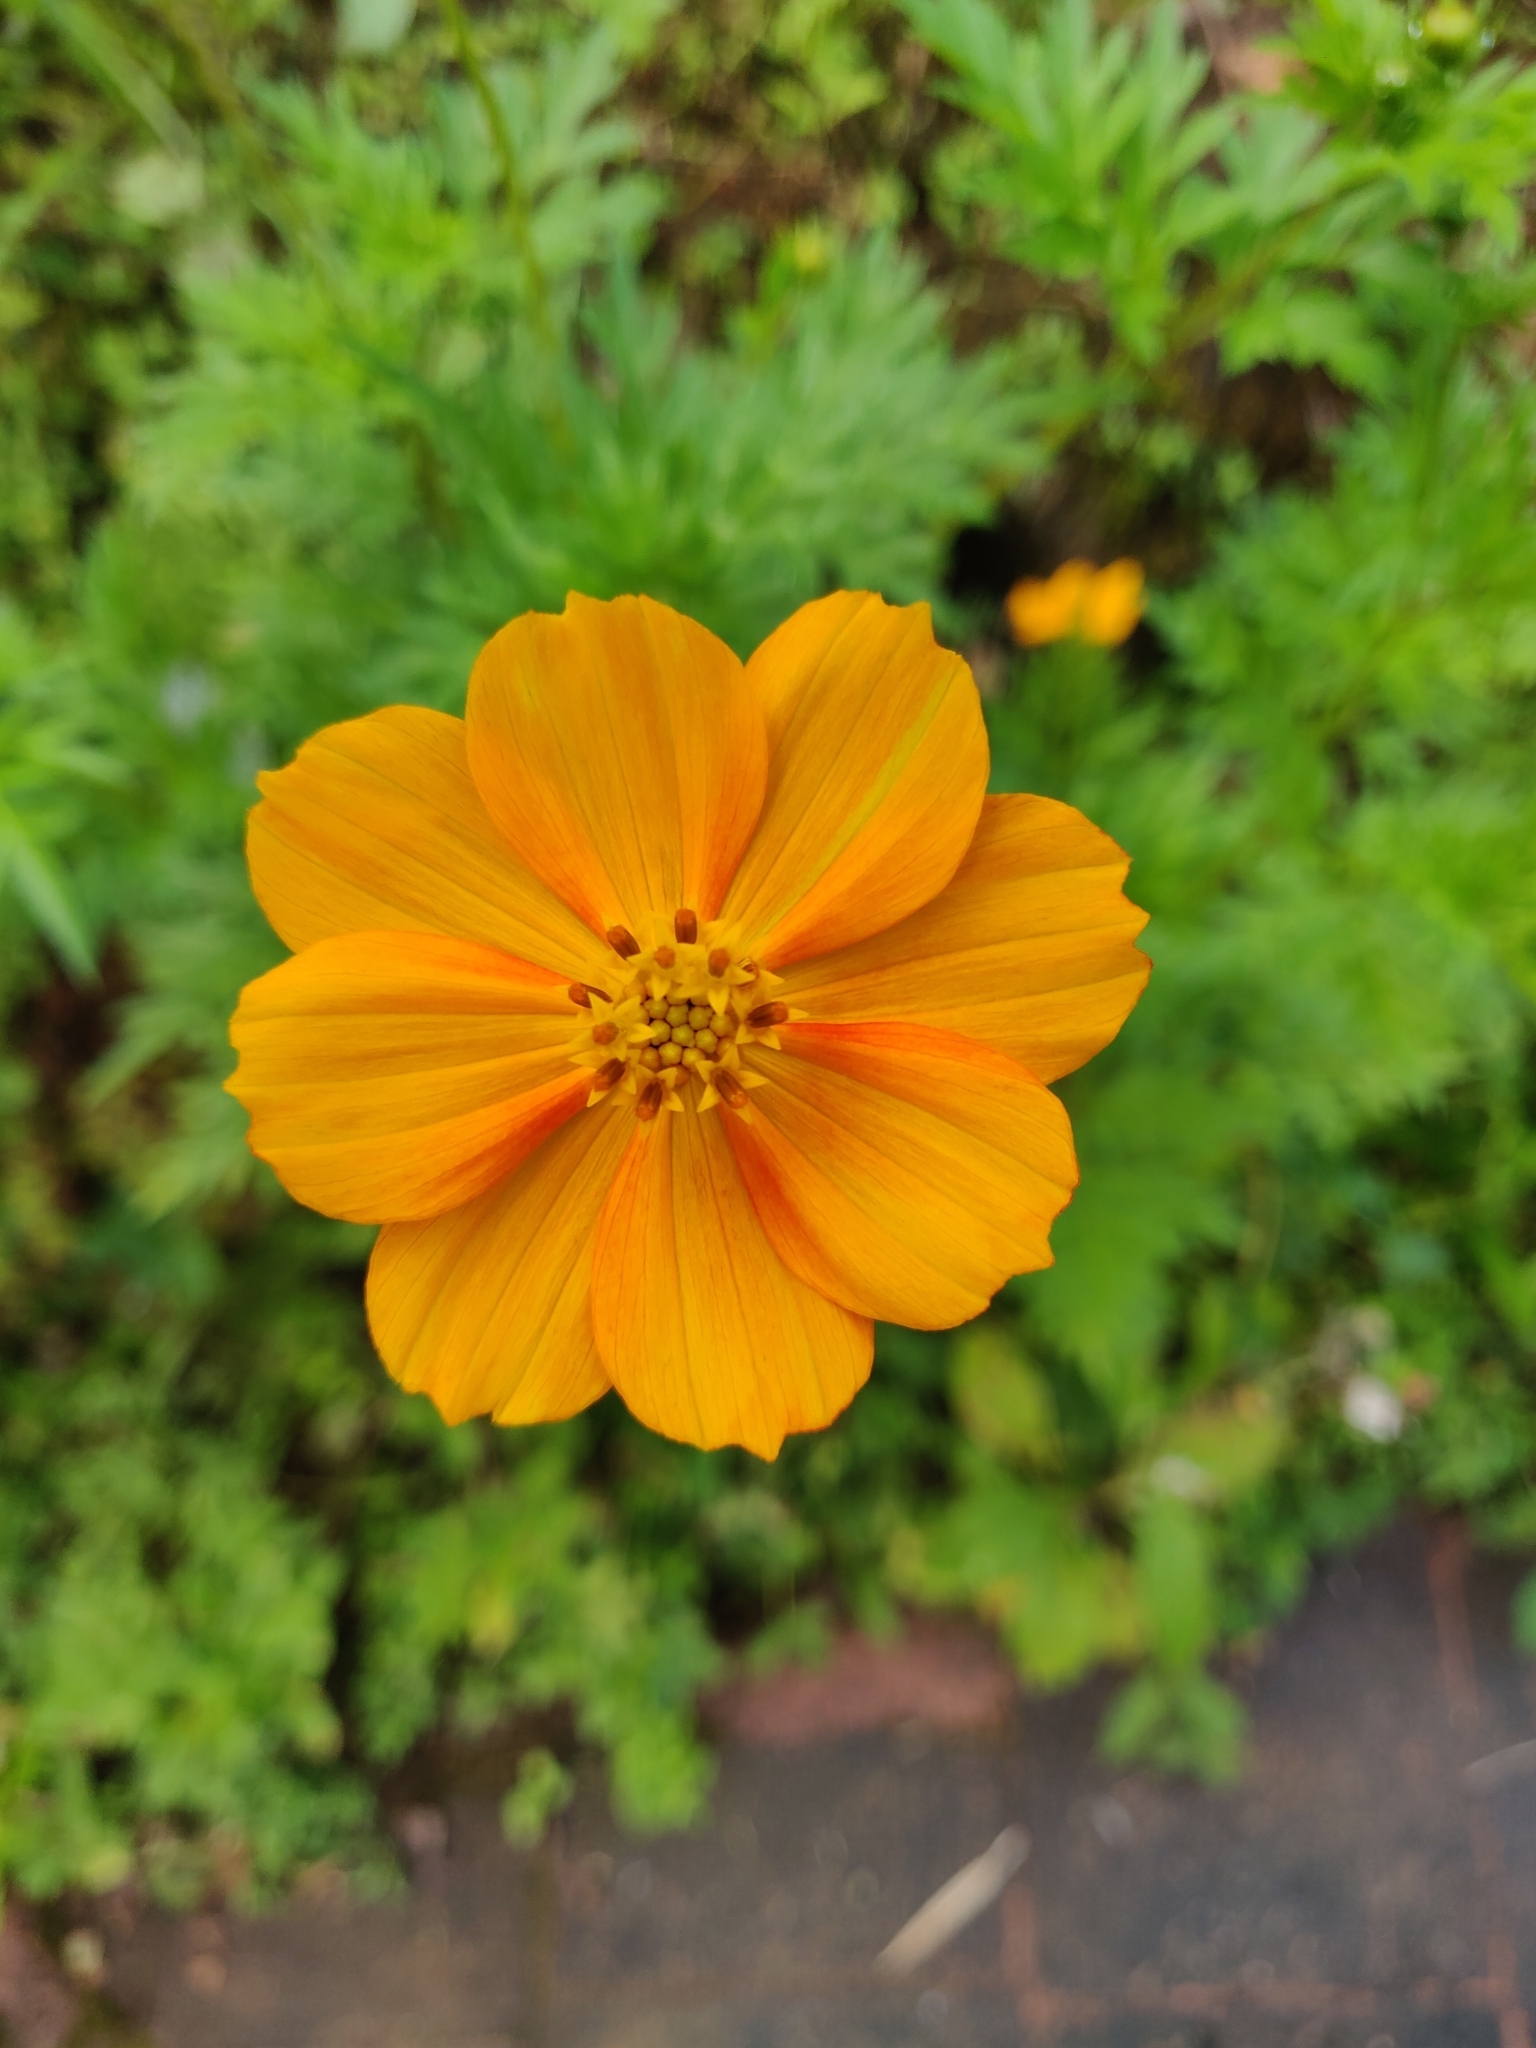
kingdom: Plantae
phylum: Tracheophyta
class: Magnoliopsida
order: Asterales
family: Asteraceae
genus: Cosmos
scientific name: Cosmos sulphureus
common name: Sulphur cosmos
